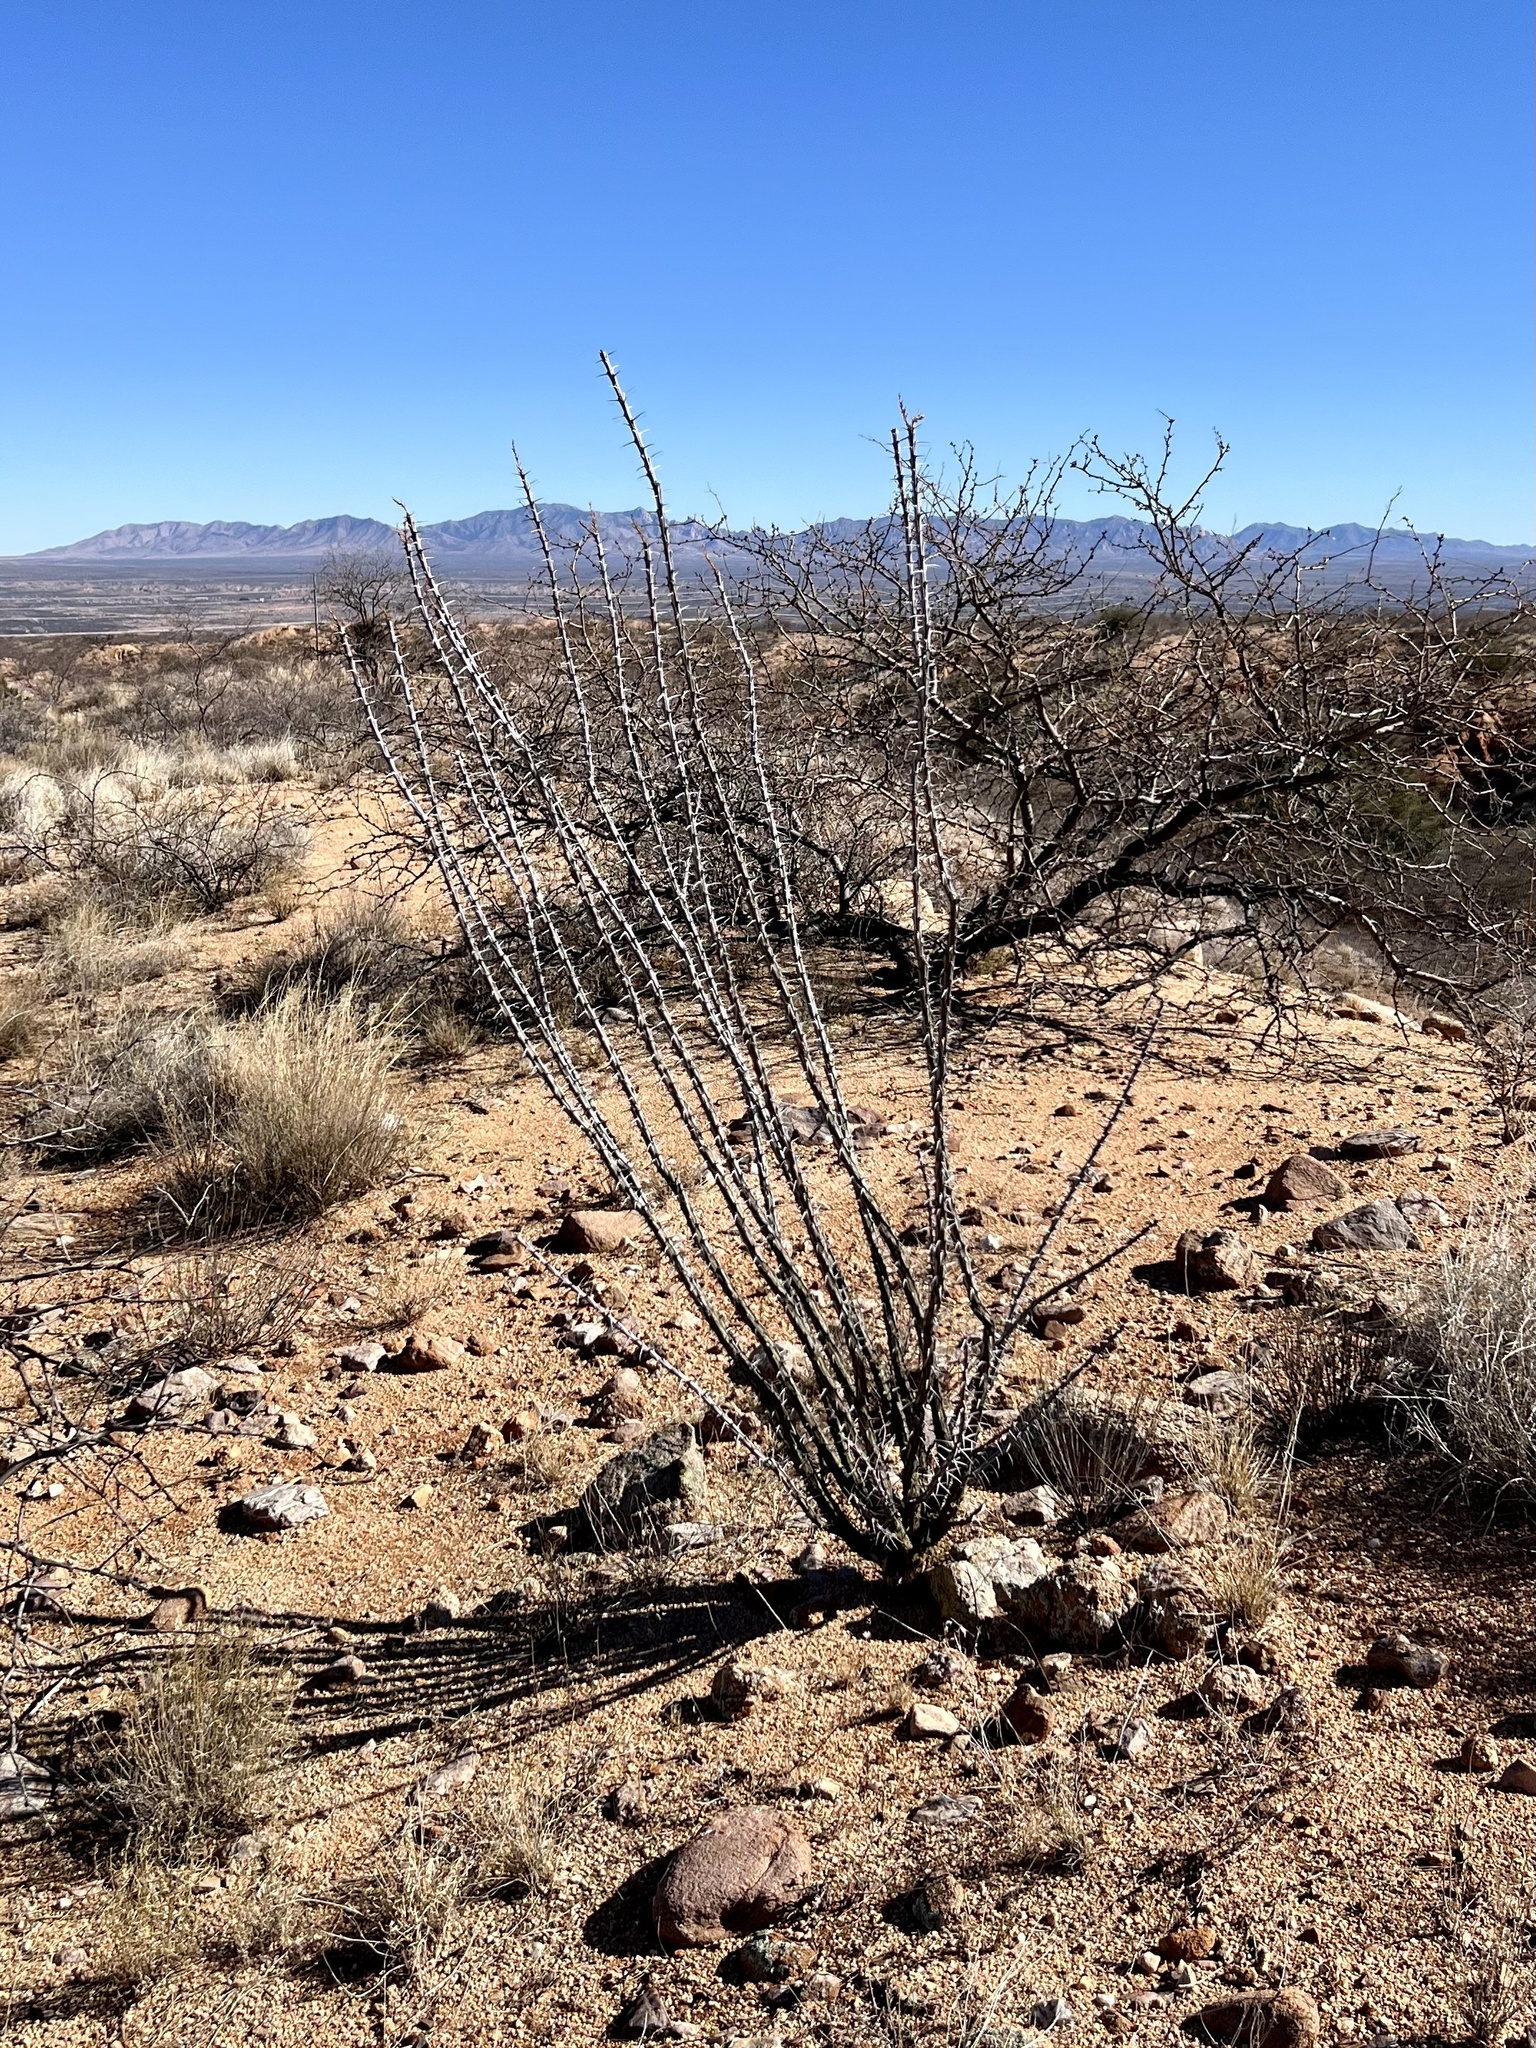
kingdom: Plantae
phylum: Tracheophyta
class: Magnoliopsida
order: Ericales
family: Fouquieriaceae
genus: Fouquieria
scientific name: Fouquieria splendens
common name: Vine-cactus
